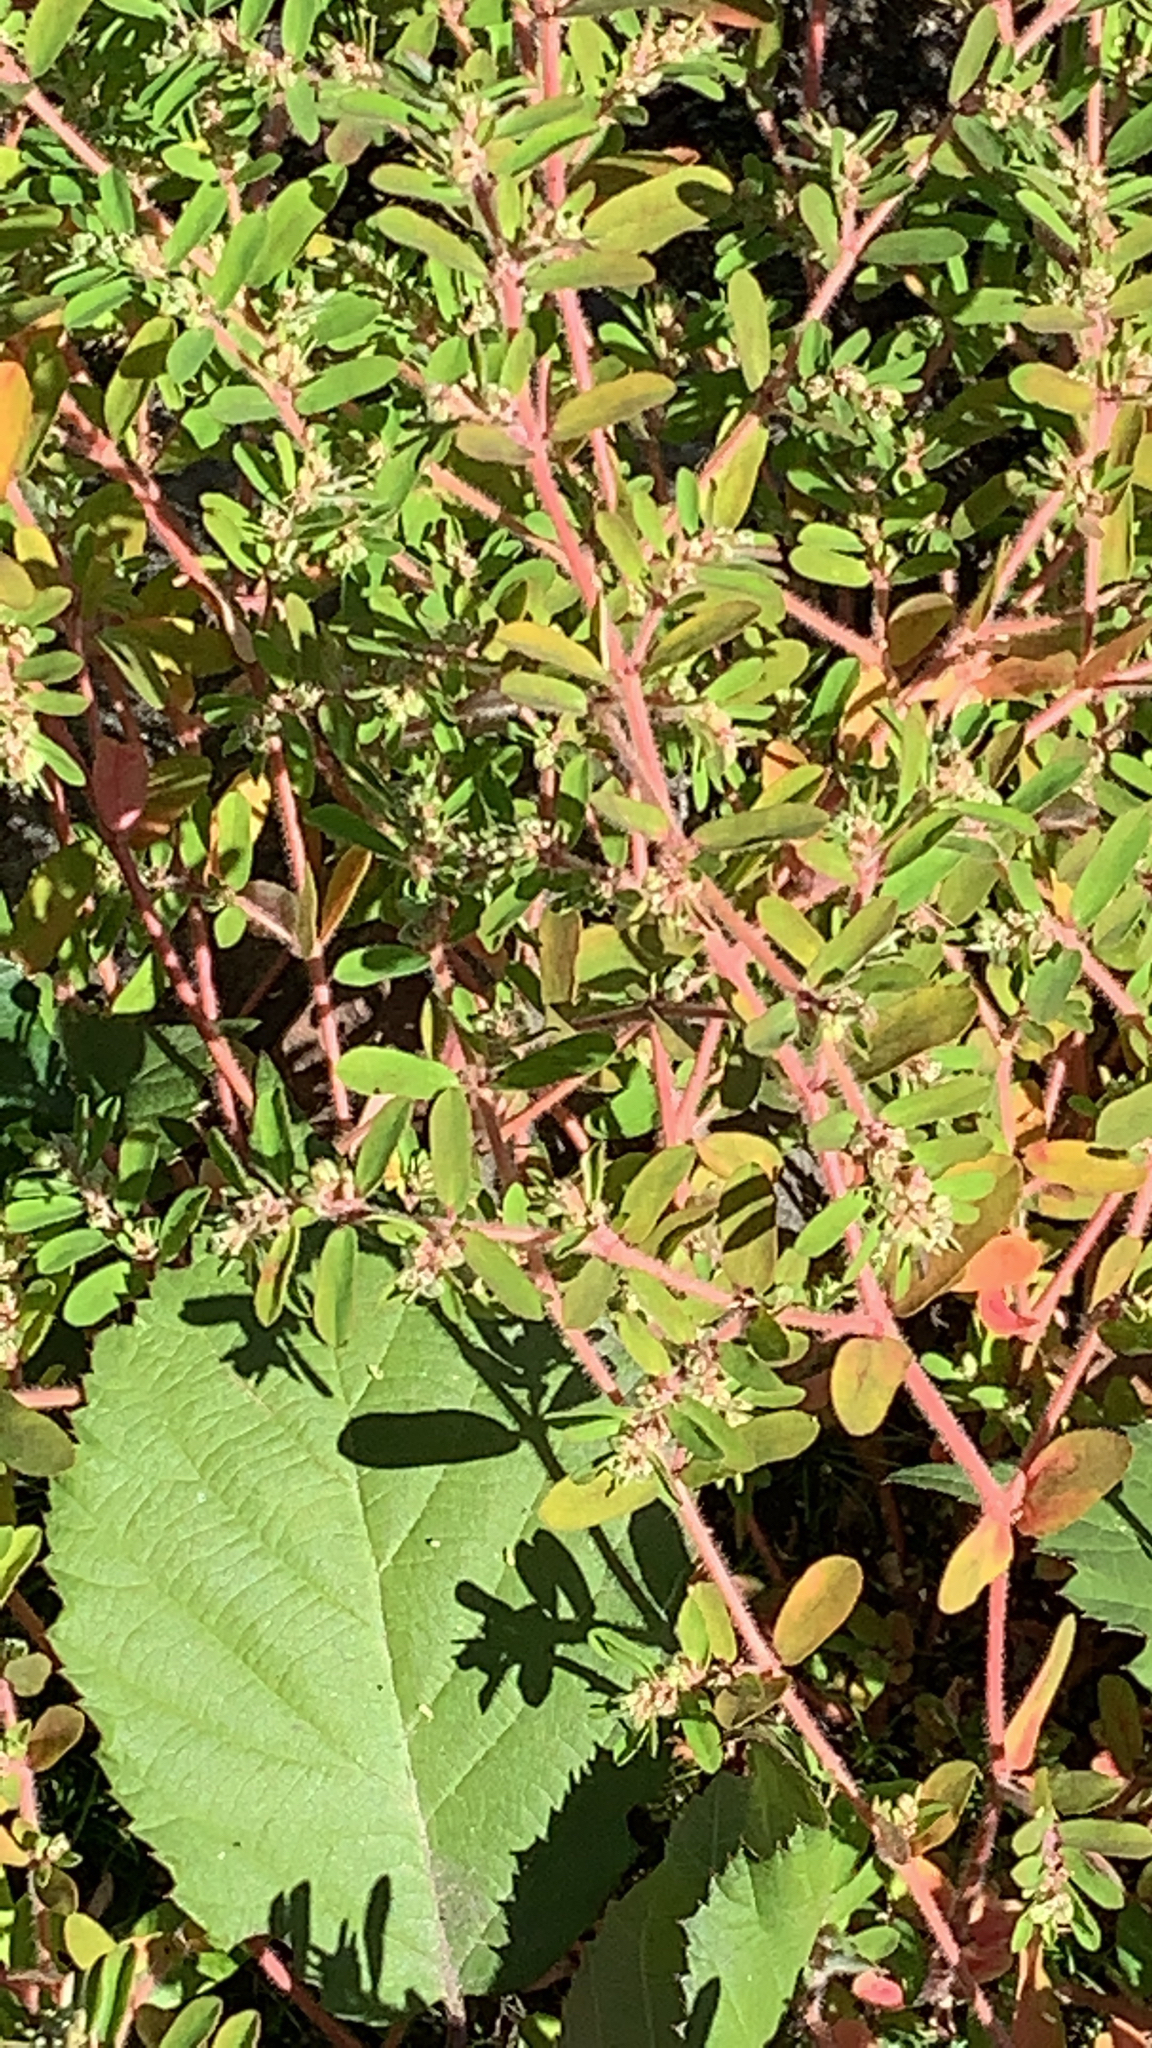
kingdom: Plantae
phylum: Tracheophyta
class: Magnoliopsida
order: Malpighiales
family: Euphorbiaceae
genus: Euphorbia
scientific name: Euphorbia maculata
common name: Spotted spurge
